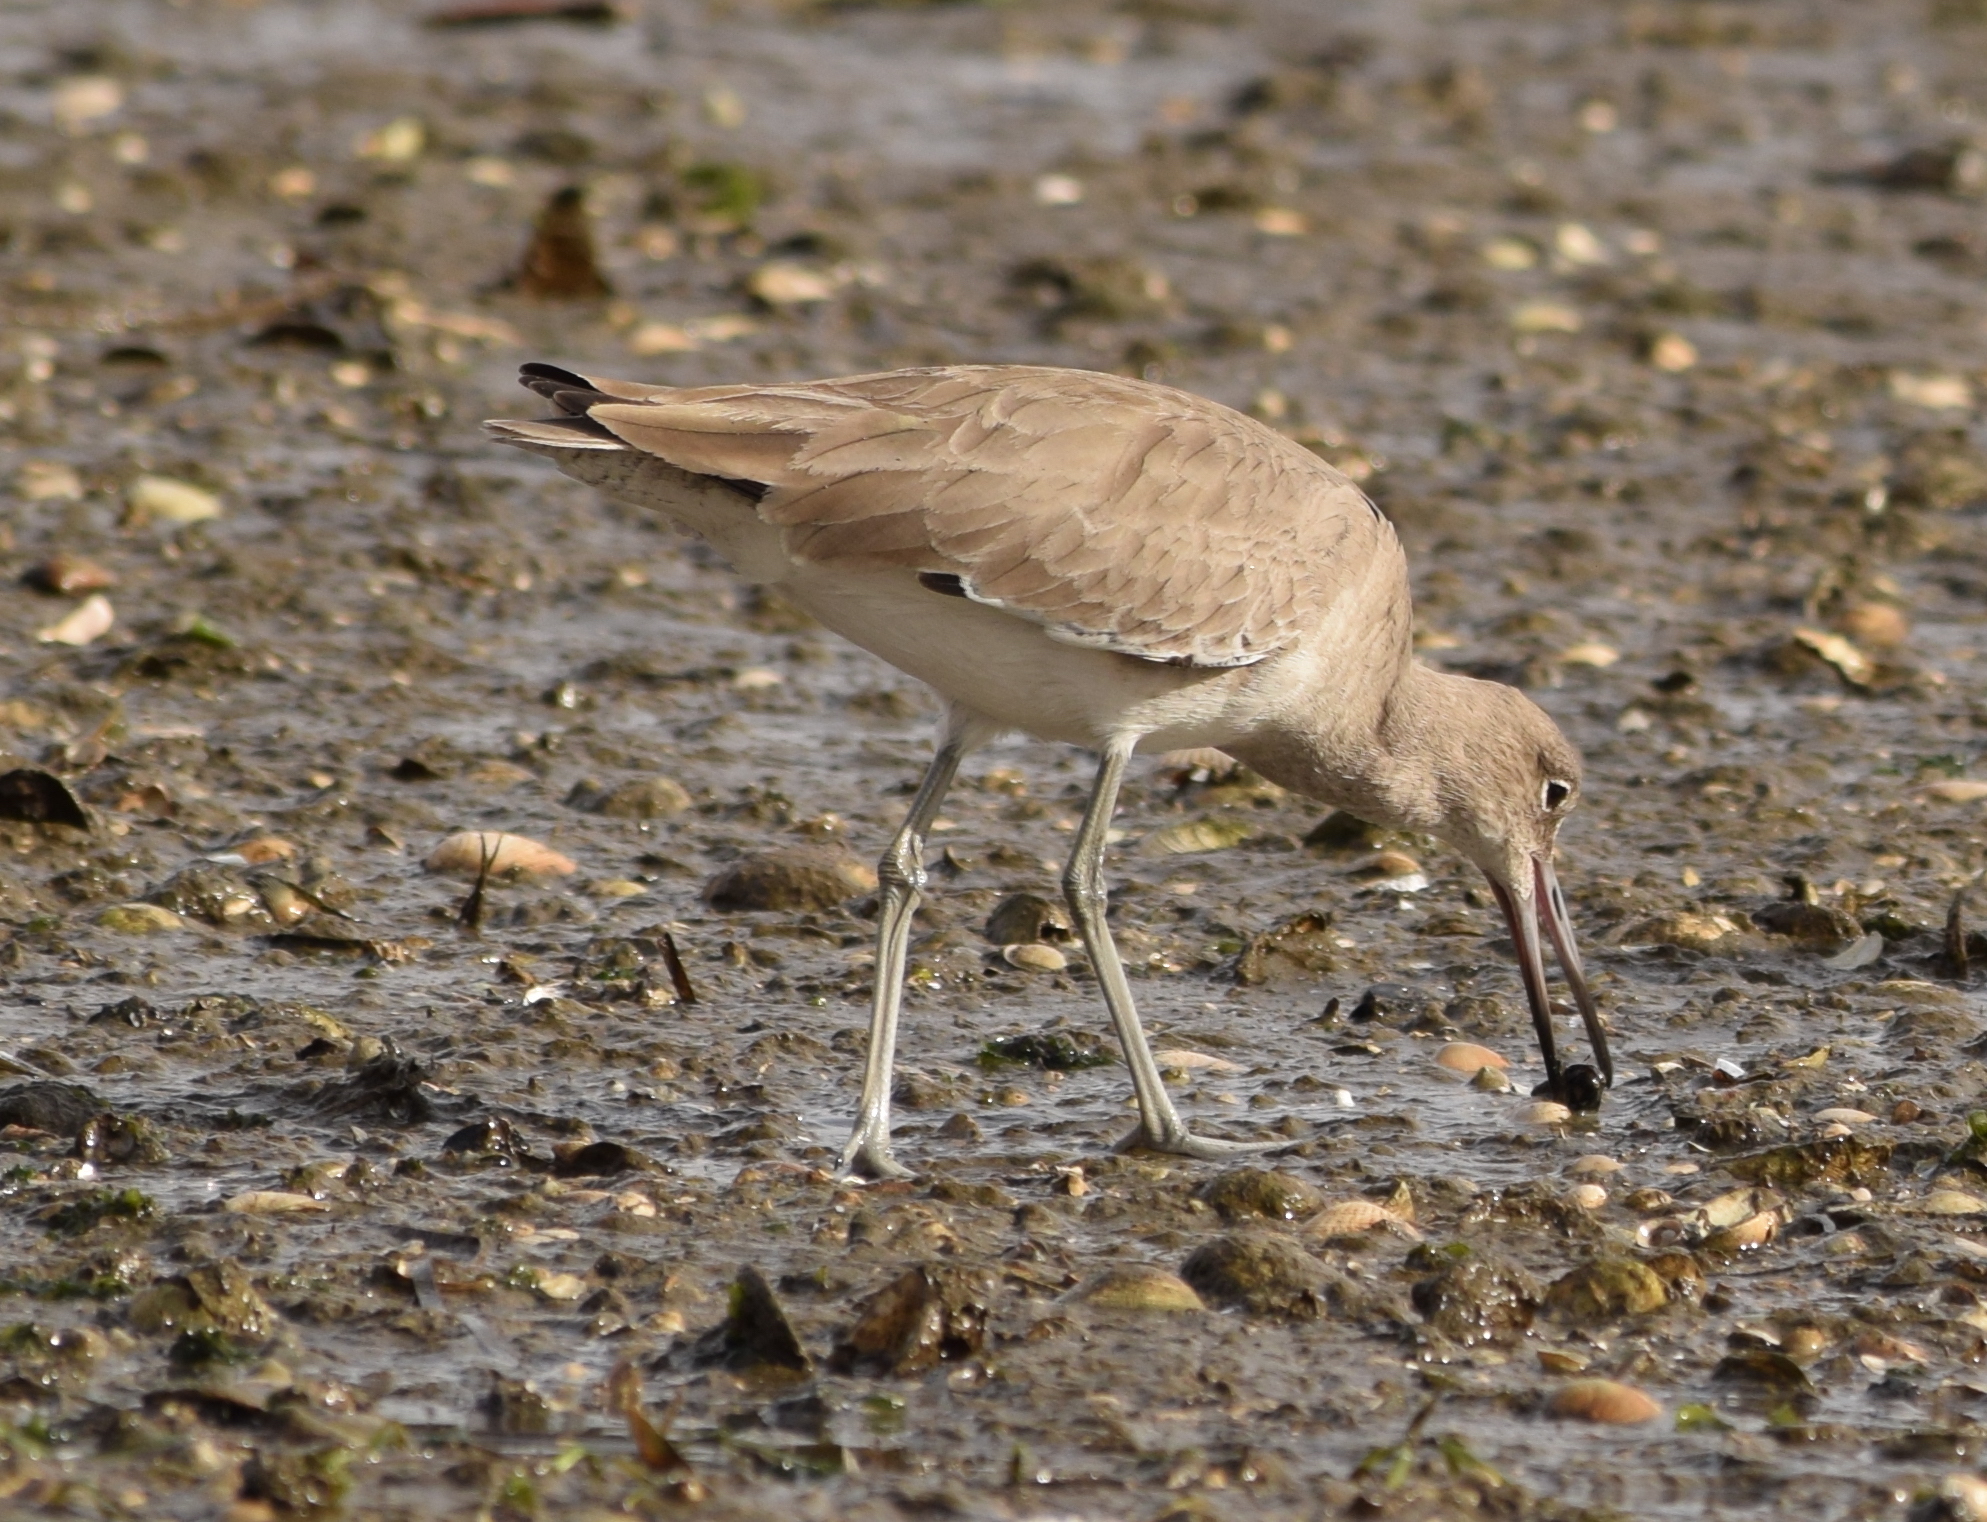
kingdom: Animalia
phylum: Chordata
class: Aves
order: Charadriiformes
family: Scolopacidae
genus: Tringa
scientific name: Tringa semipalmata
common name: Willet
